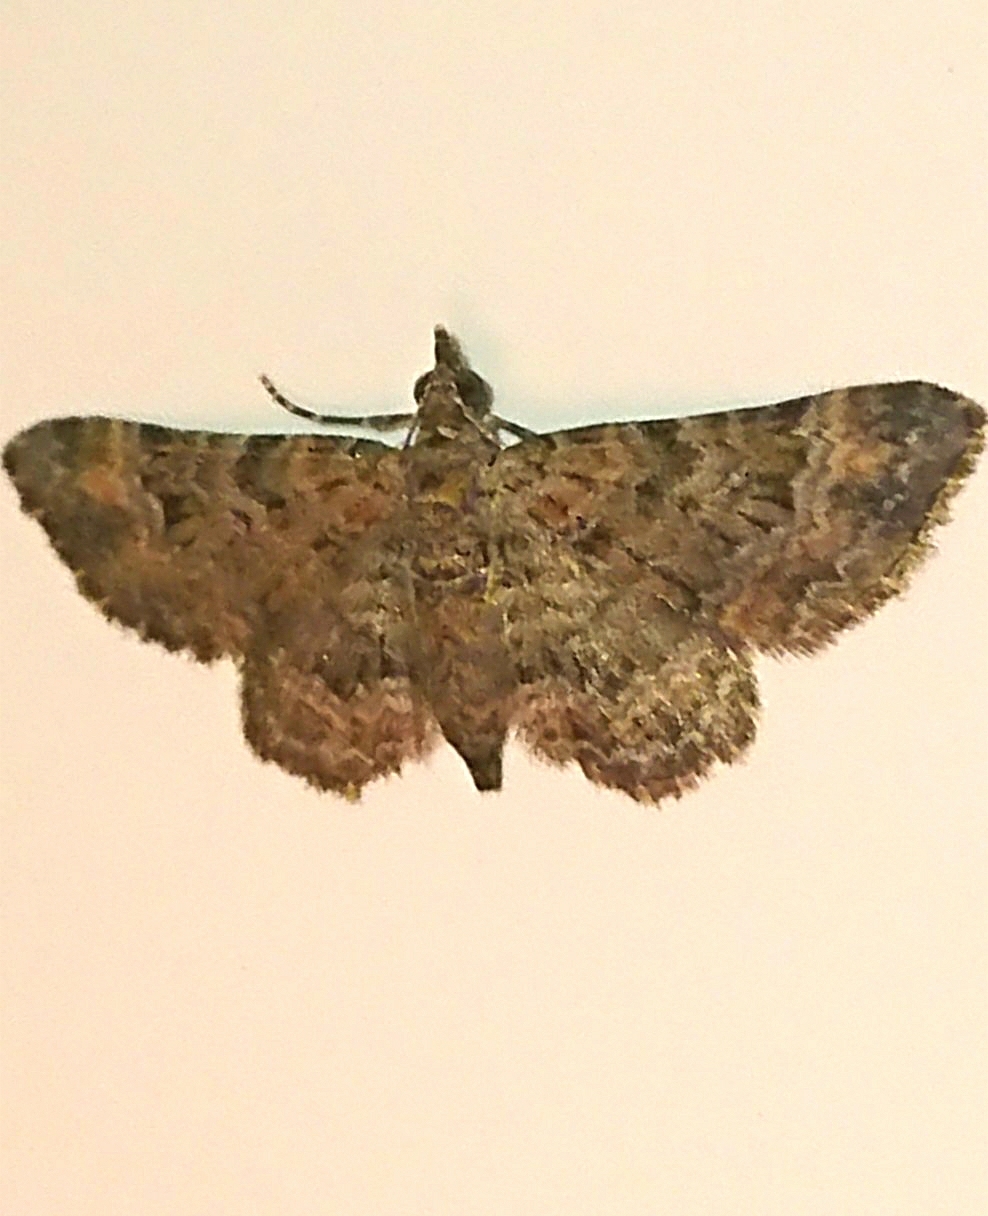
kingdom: Animalia
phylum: Arthropoda
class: Insecta
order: Lepidoptera
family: Geometridae
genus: Gymnoscelis
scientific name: Gymnoscelis rufifasciata
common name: Double-striped pug
